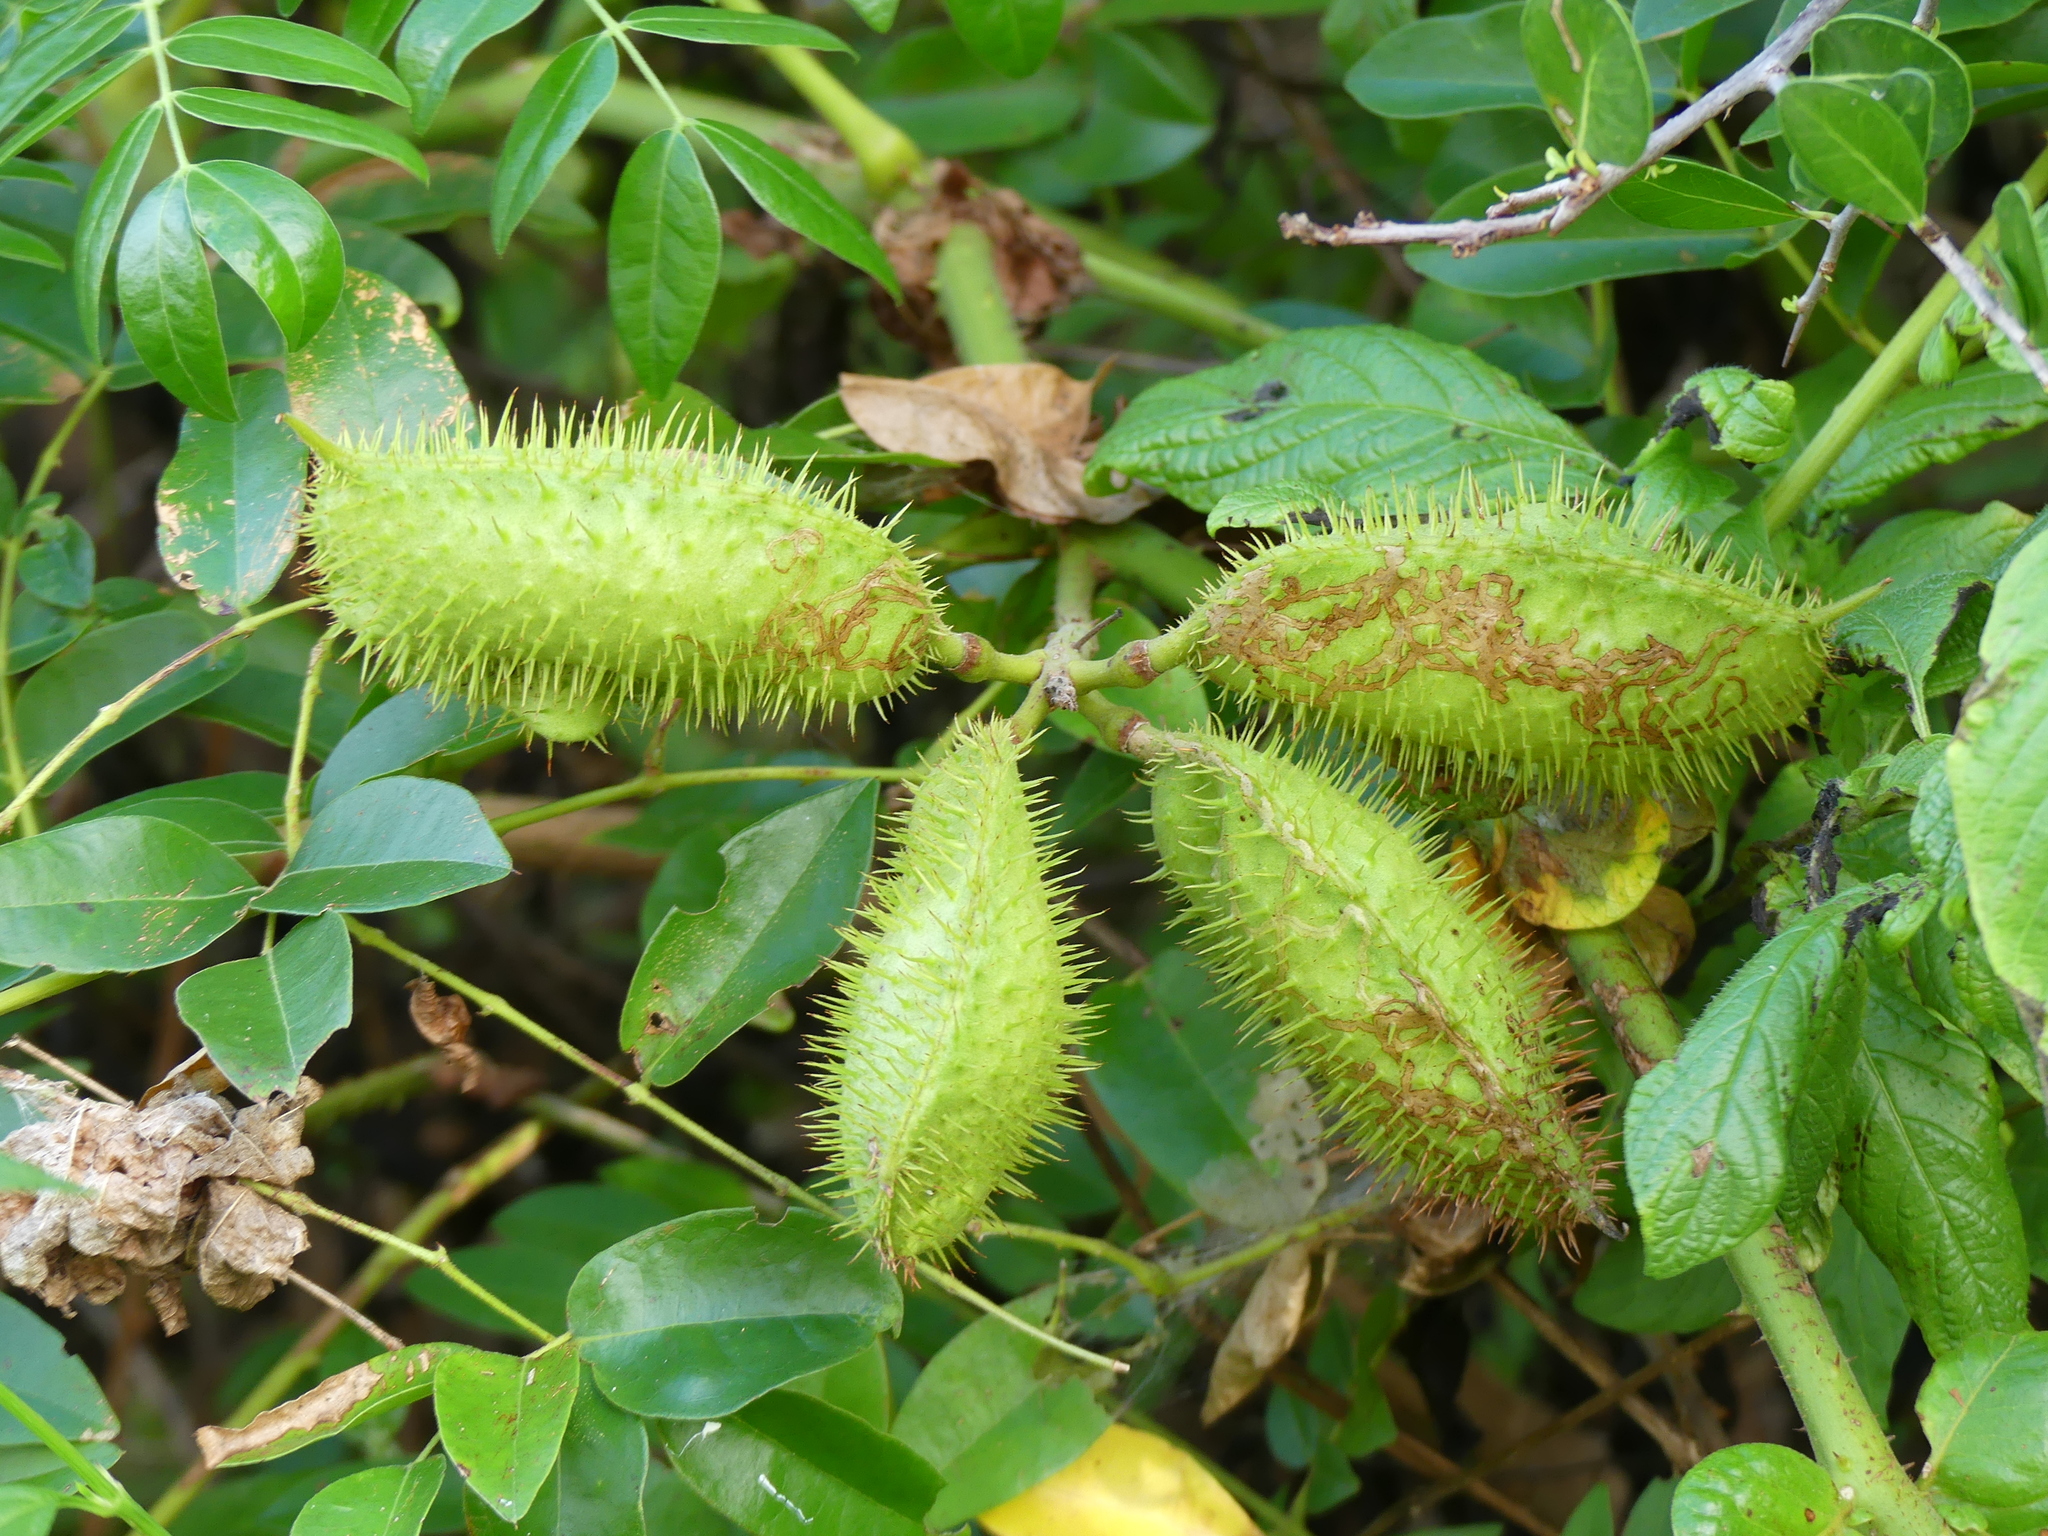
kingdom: Plantae
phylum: Tracheophyta
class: Magnoliopsida
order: Fabales
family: Fabaceae
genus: Guilandina
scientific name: Guilandina bonduc
